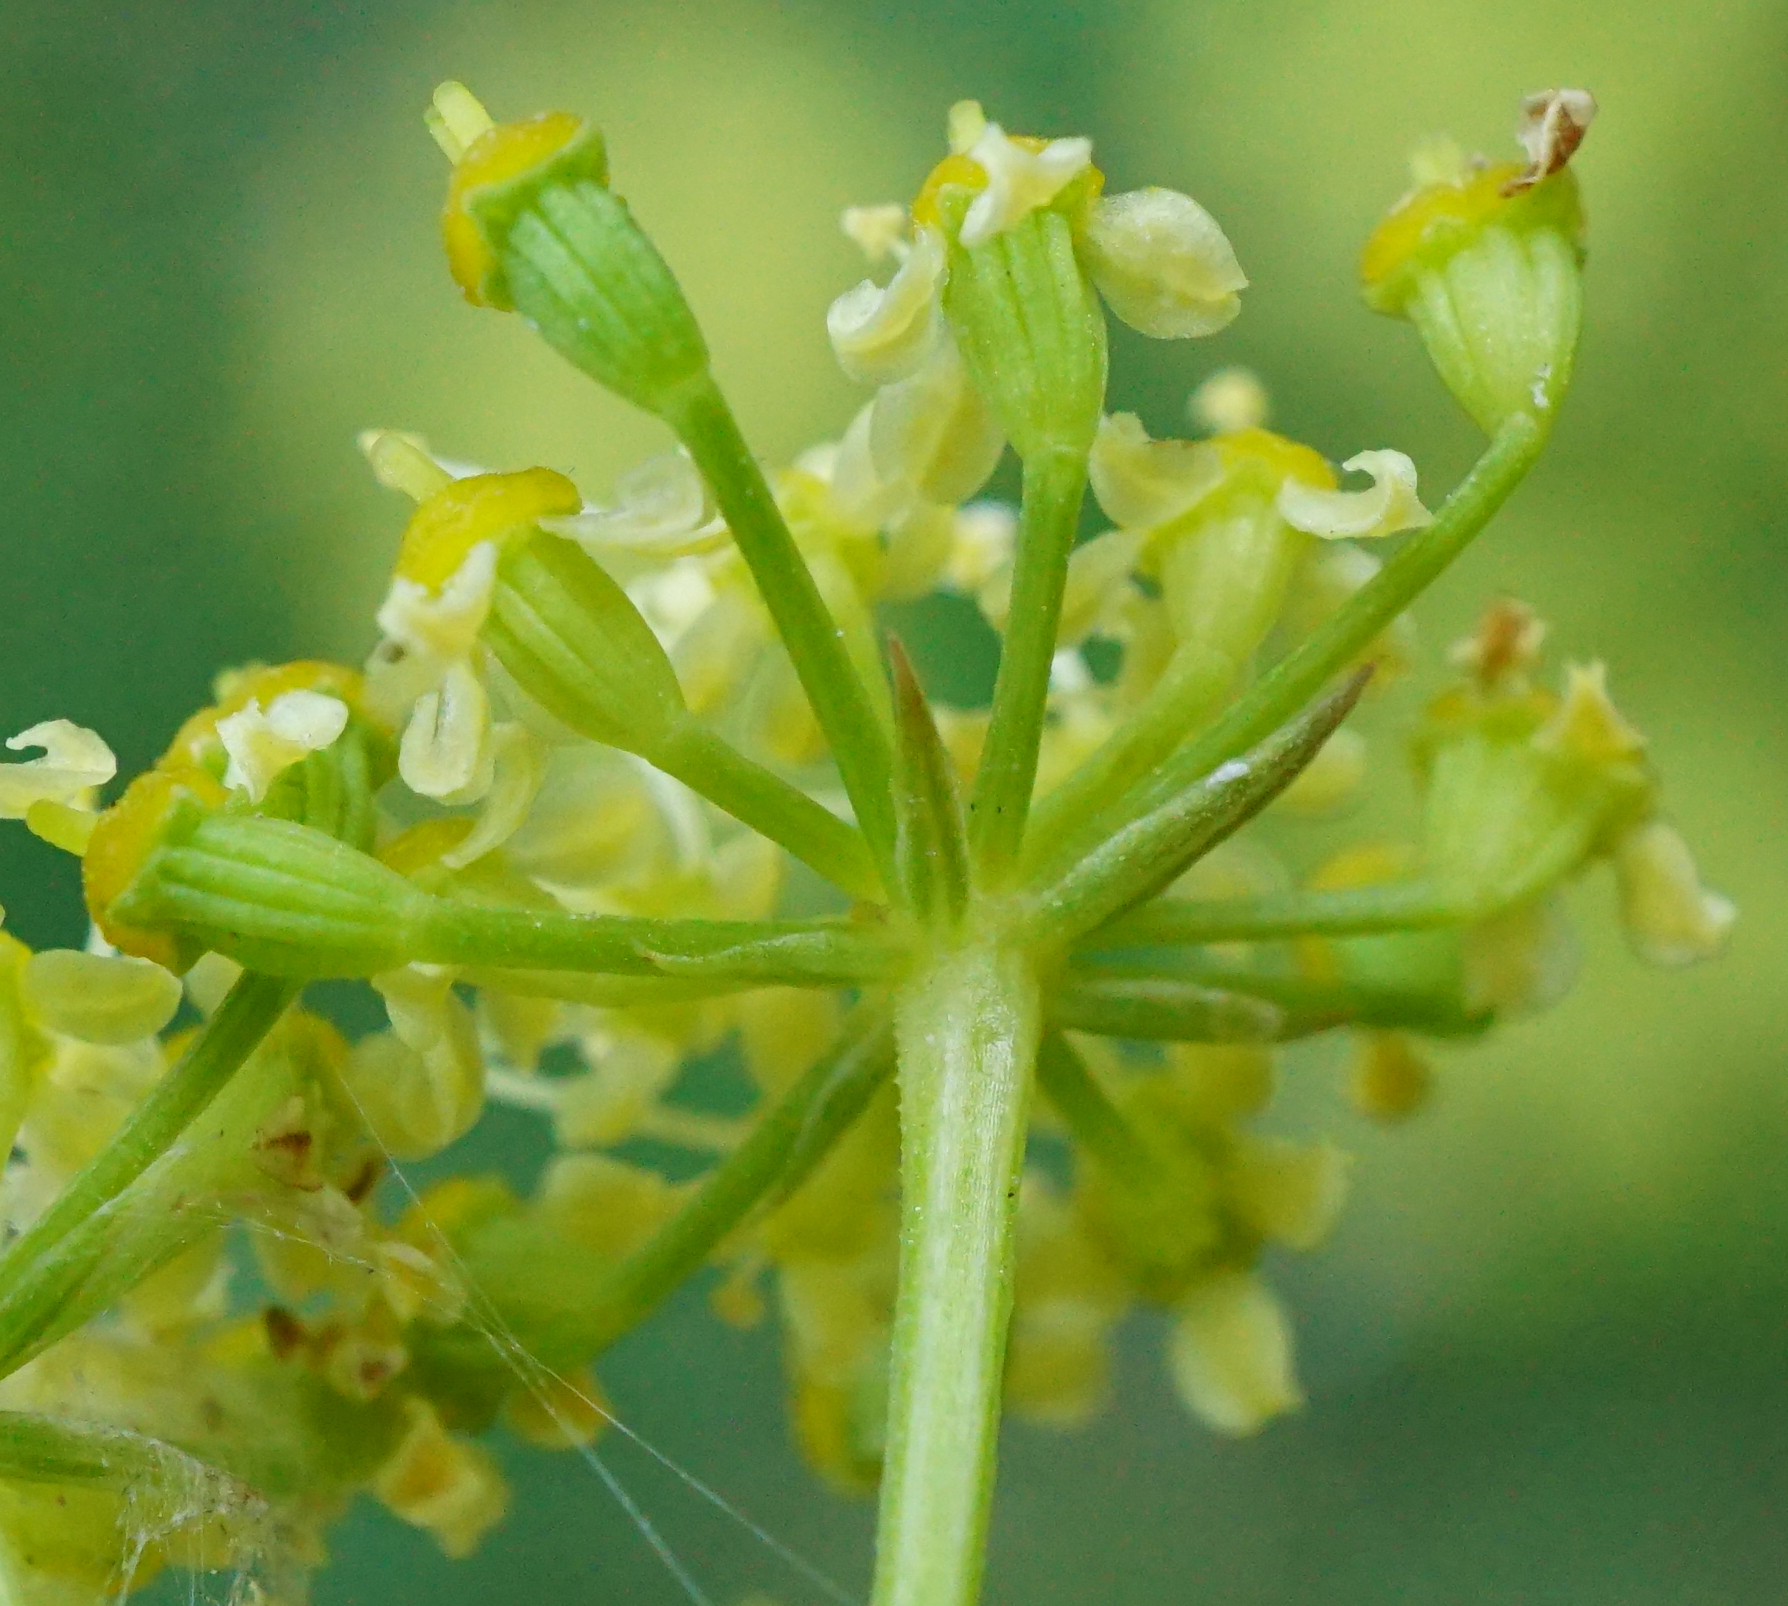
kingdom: Plantae
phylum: Tracheophyta
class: Magnoliopsida
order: Apiales
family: Apiaceae
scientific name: Apiaceae
